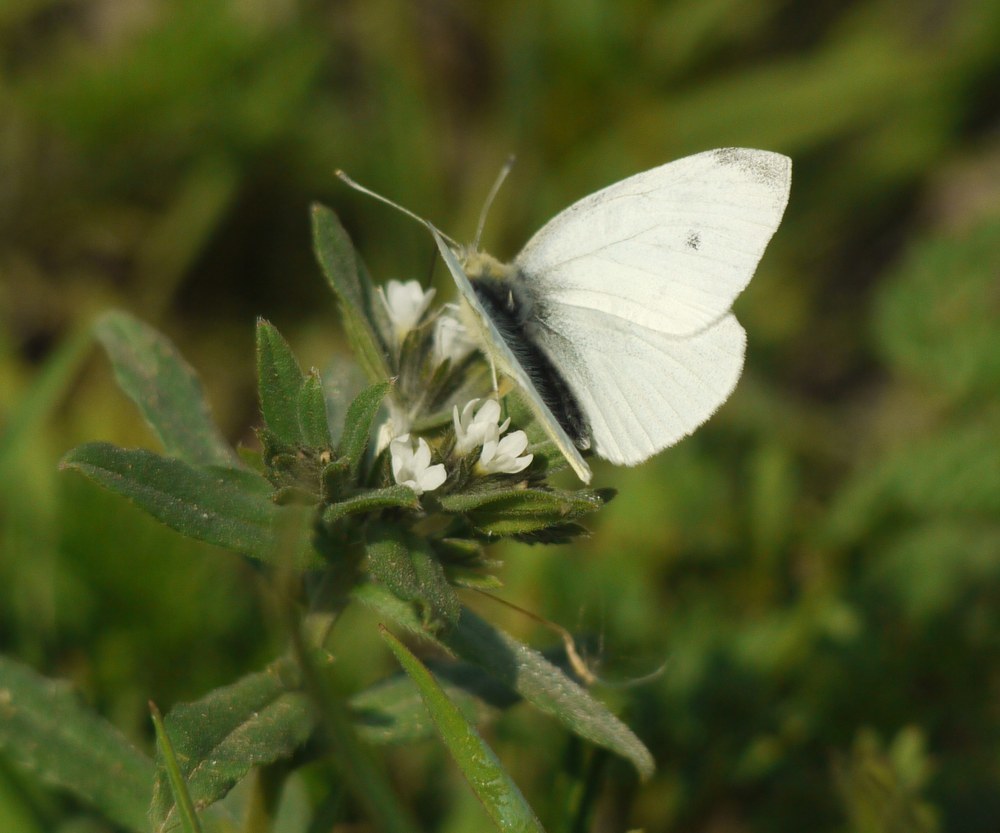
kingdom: Animalia
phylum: Arthropoda
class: Insecta
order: Lepidoptera
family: Pieridae
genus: Pieris
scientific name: Pieris rapae
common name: Small white
